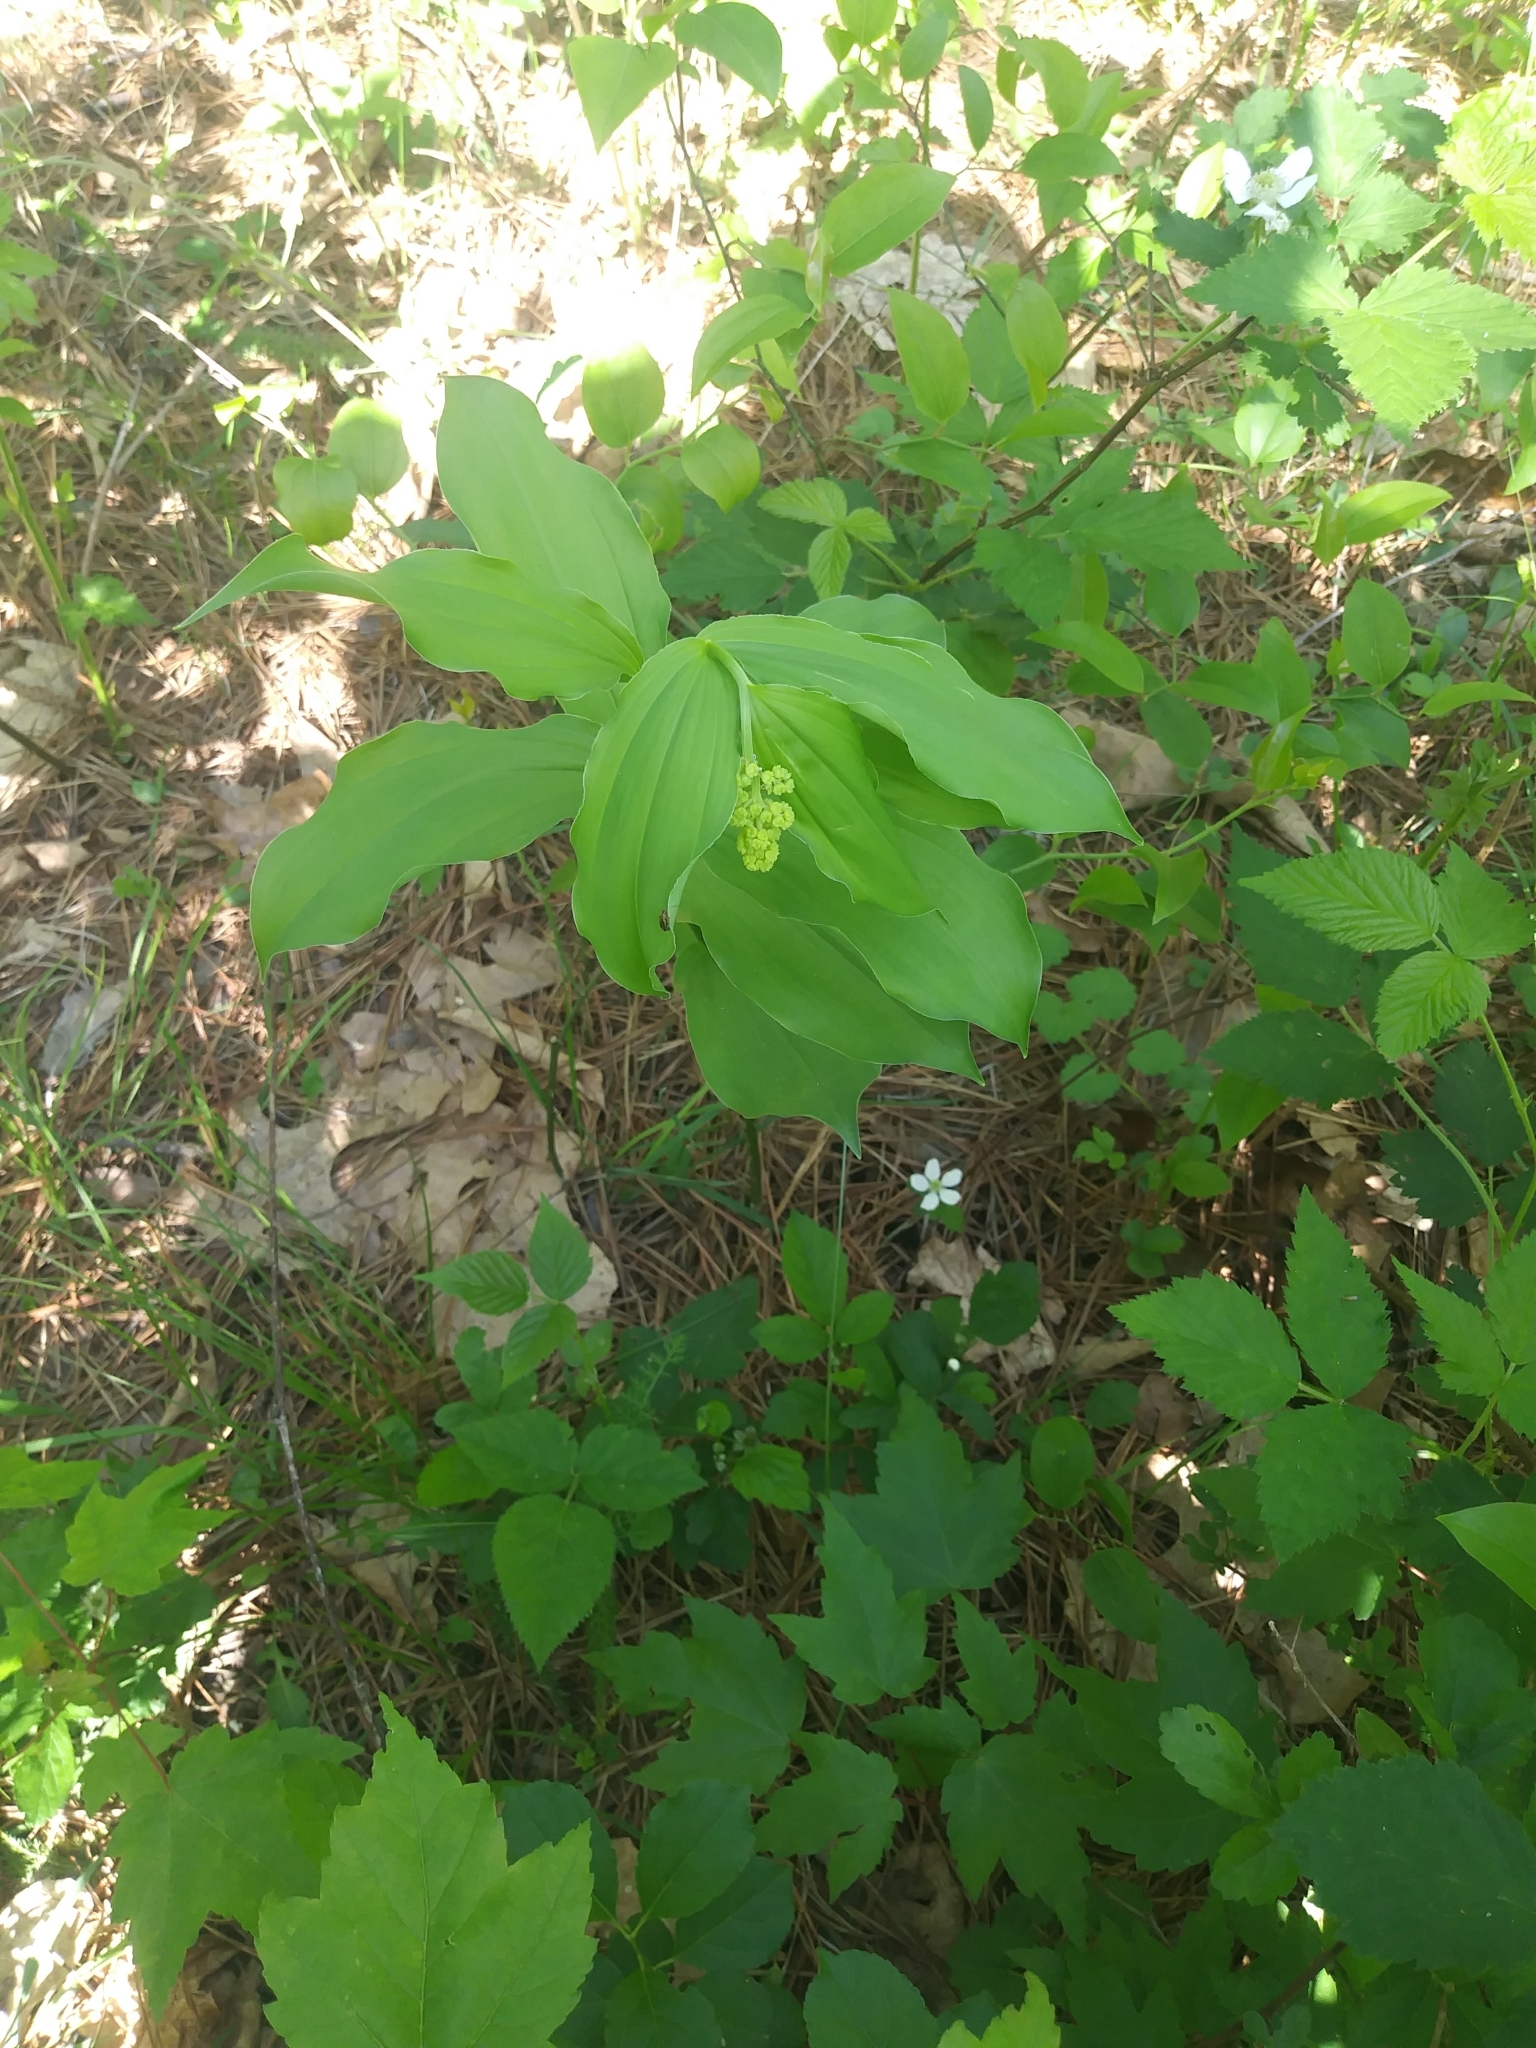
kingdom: Plantae
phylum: Tracheophyta
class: Liliopsida
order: Asparagales
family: Asparagaceae
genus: Maianthemum
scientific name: Maianthemum racemosum
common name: False spikenard
